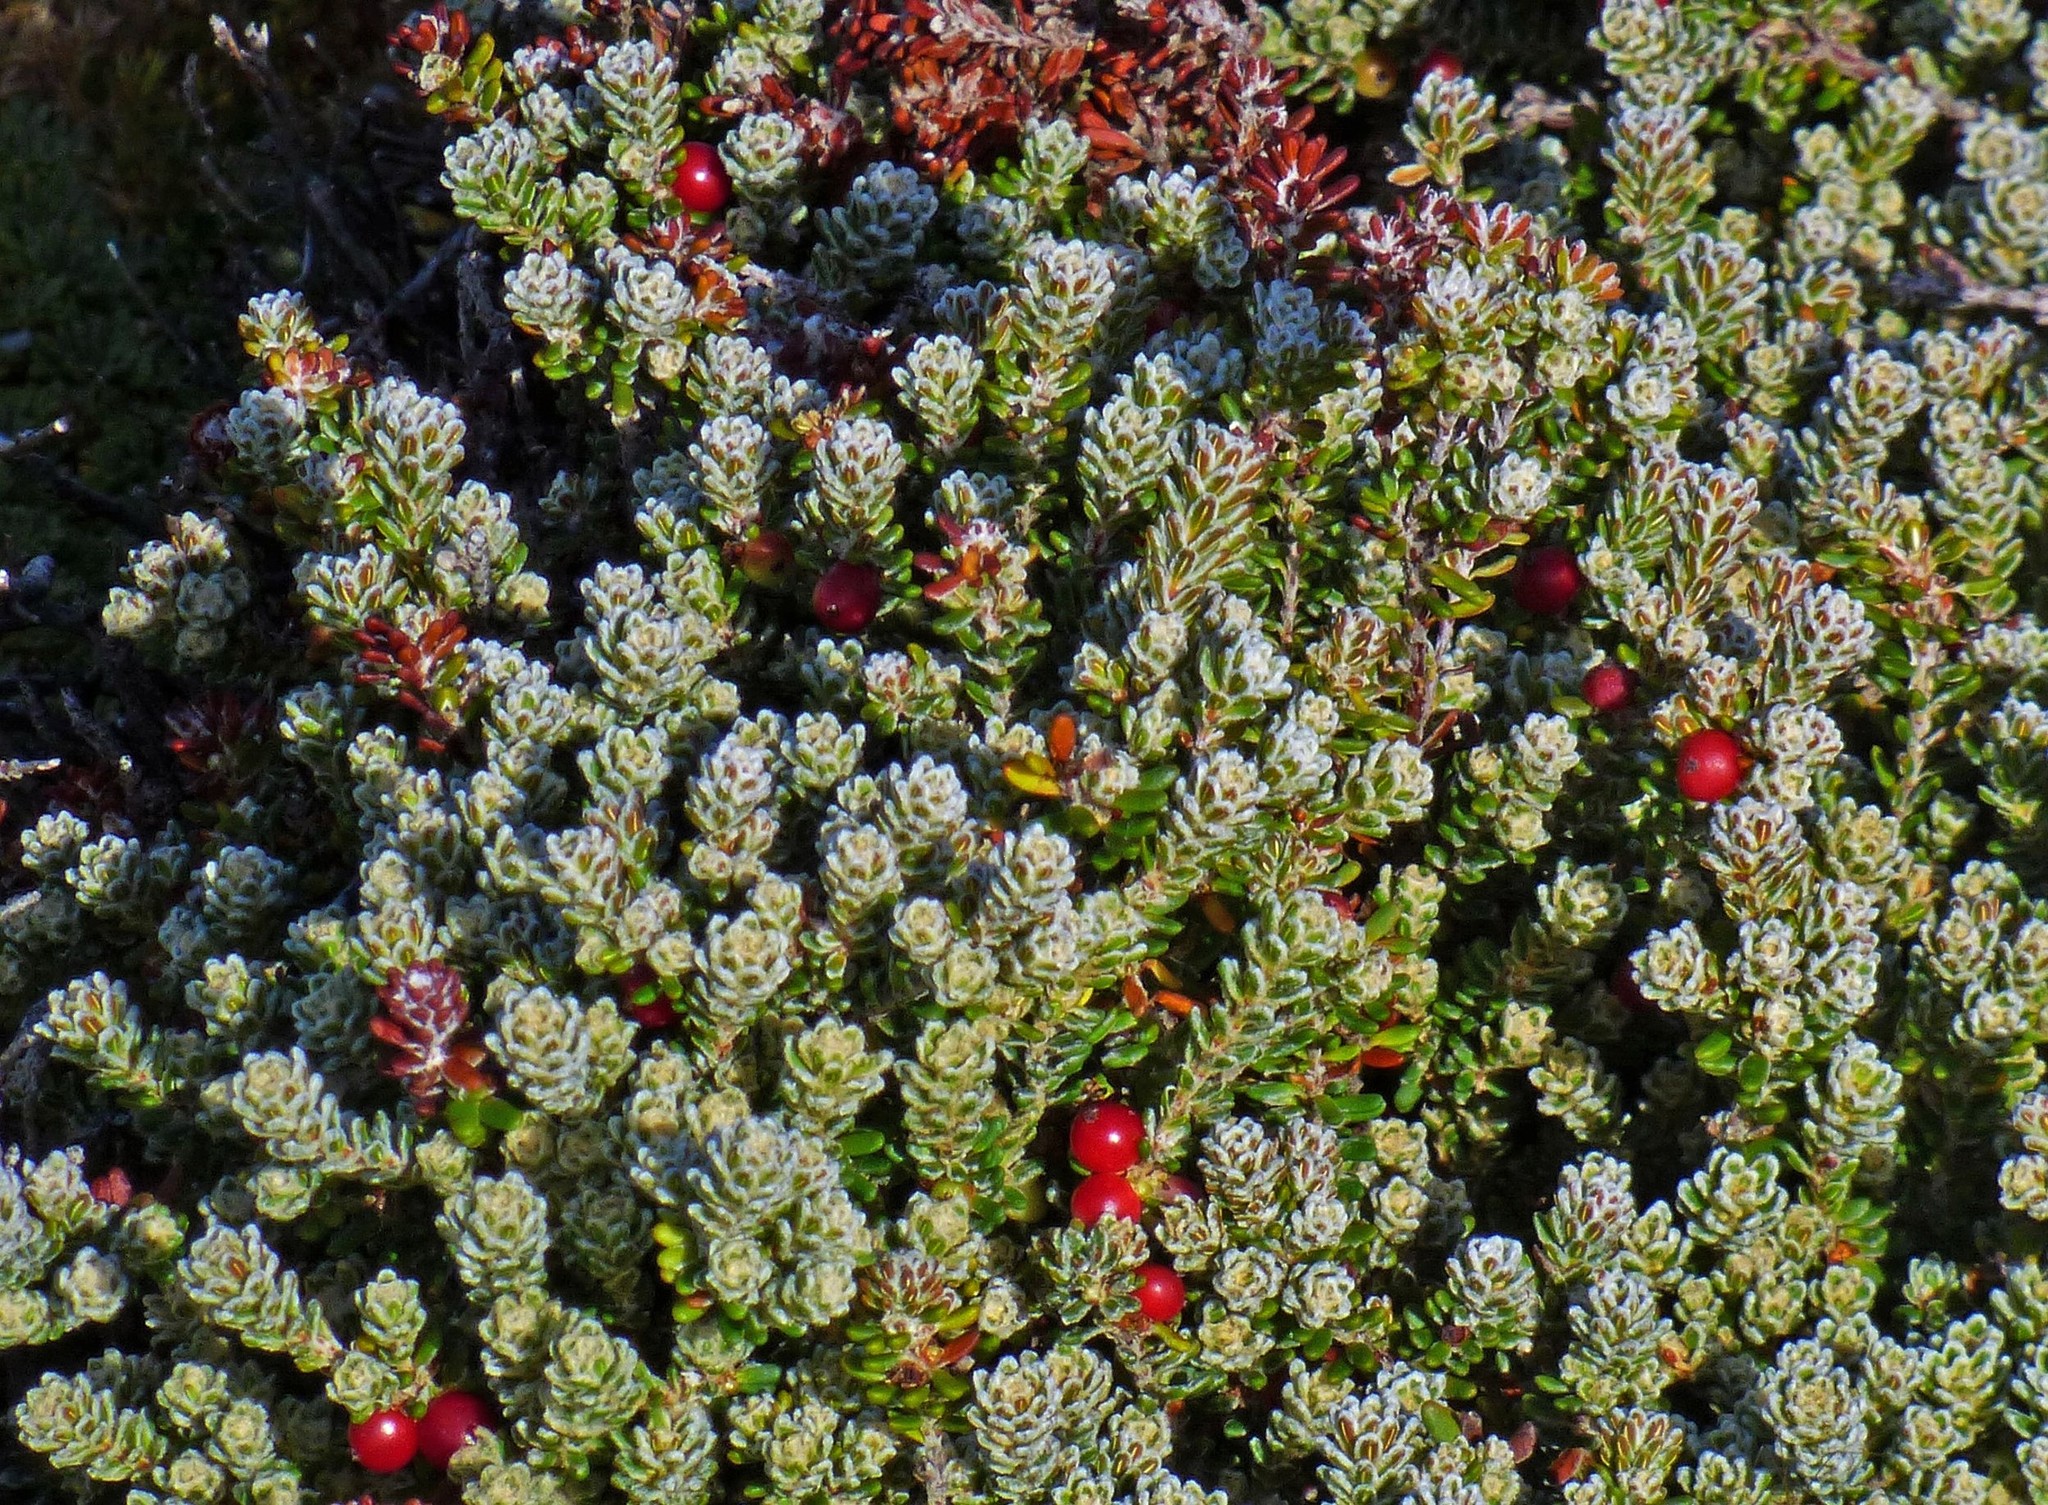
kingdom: Plantae
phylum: Tracheophyta
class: Magnoliopsida
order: Ericales
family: Ericaceae
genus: Empetrum
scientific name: Empetrum rubrum
